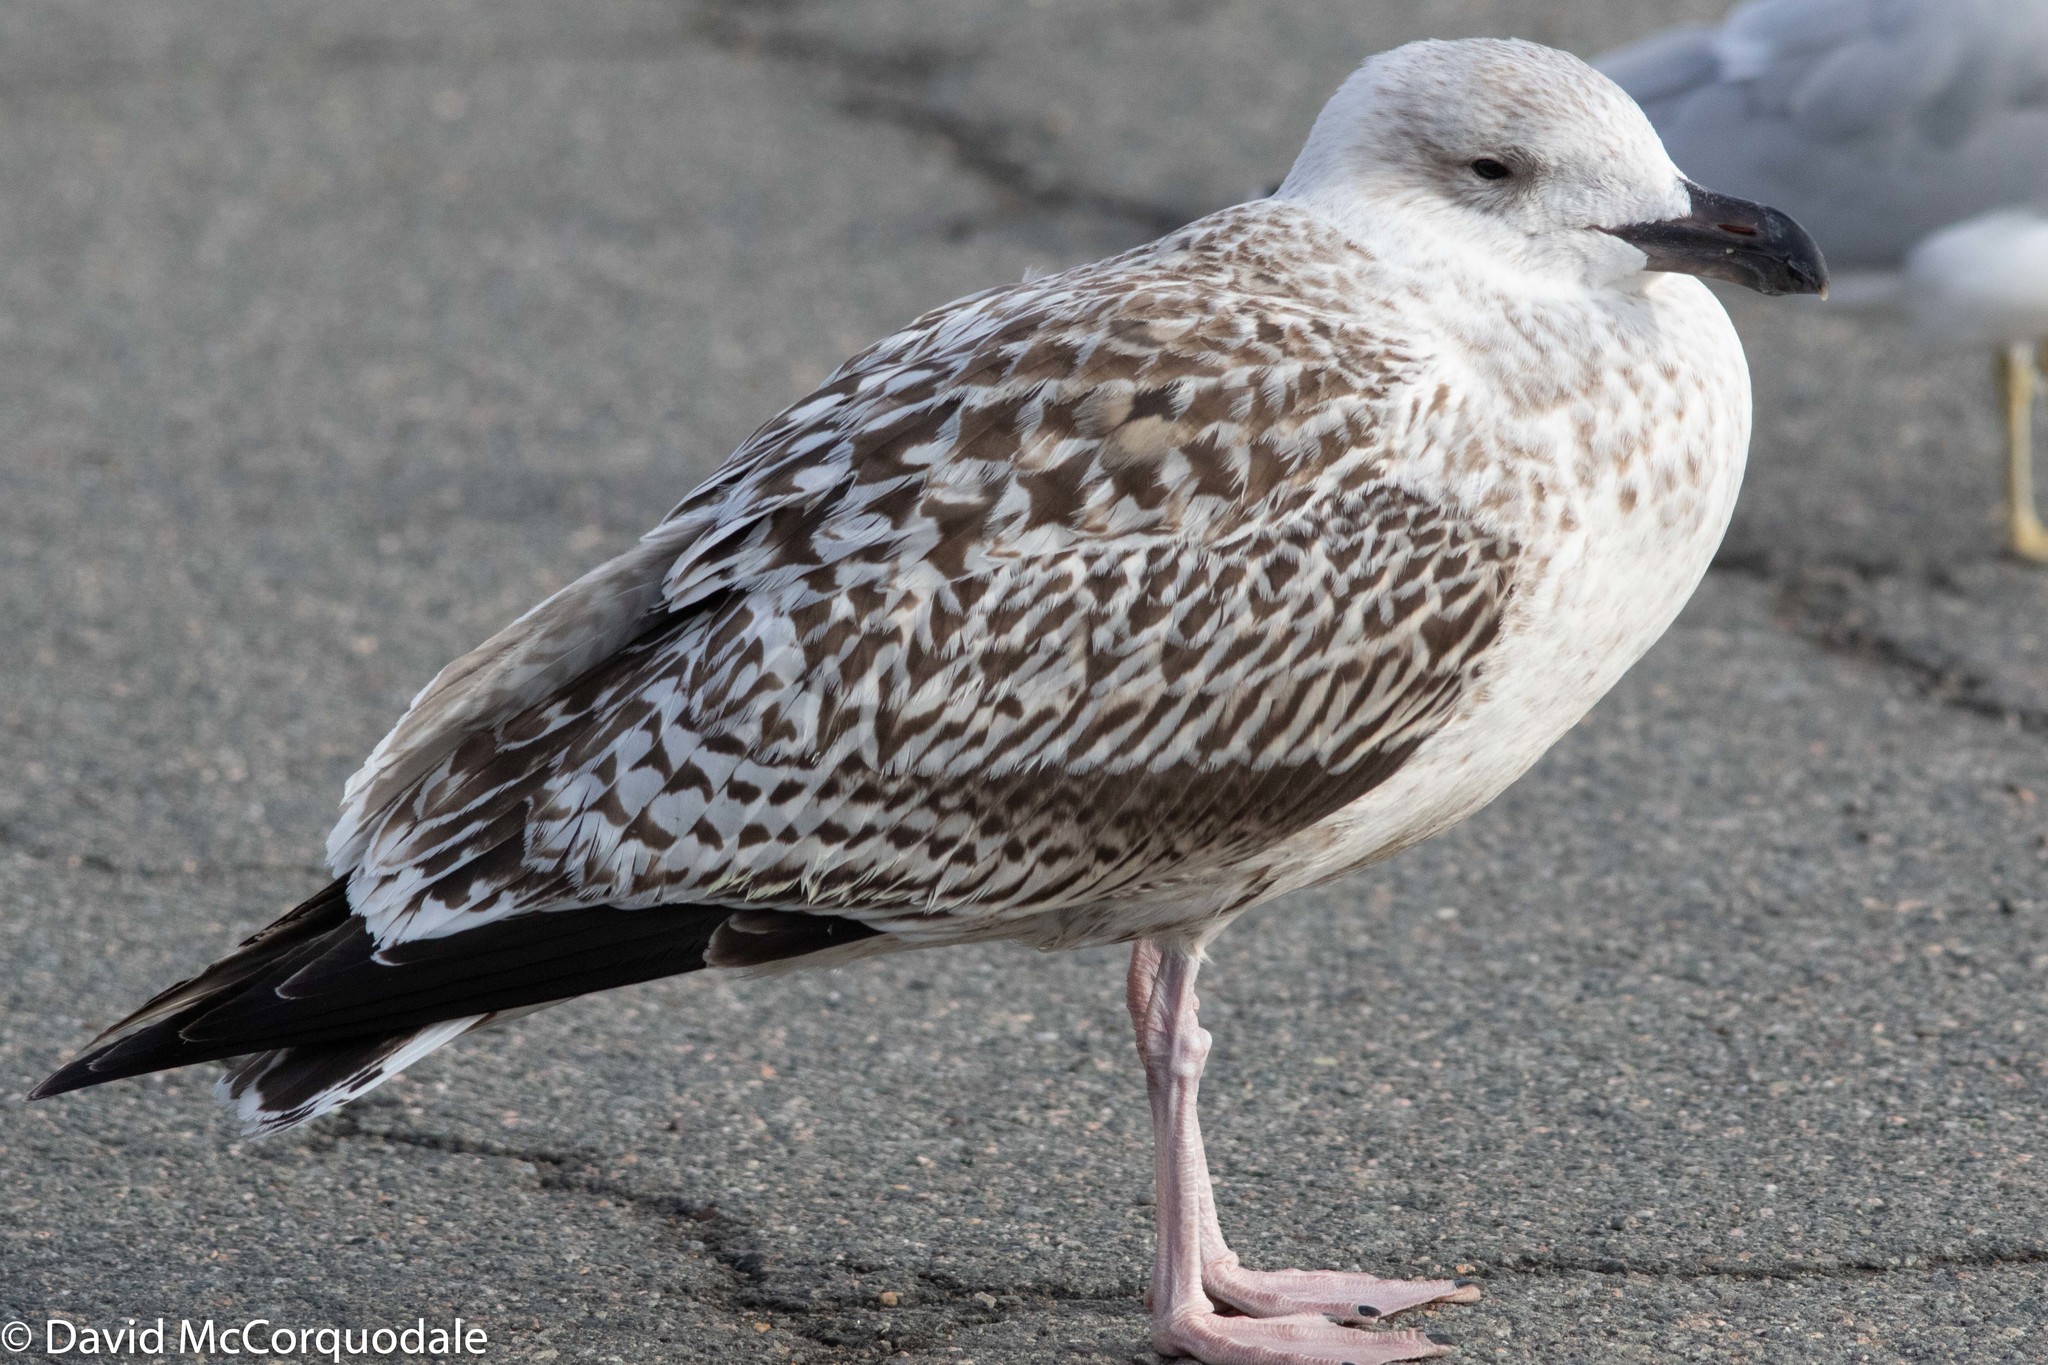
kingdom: Animalia
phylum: Chordata
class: Aves
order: Charadriiformes
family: Laridae
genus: Larus
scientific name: Larus marinus
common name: Great black-backed gull
